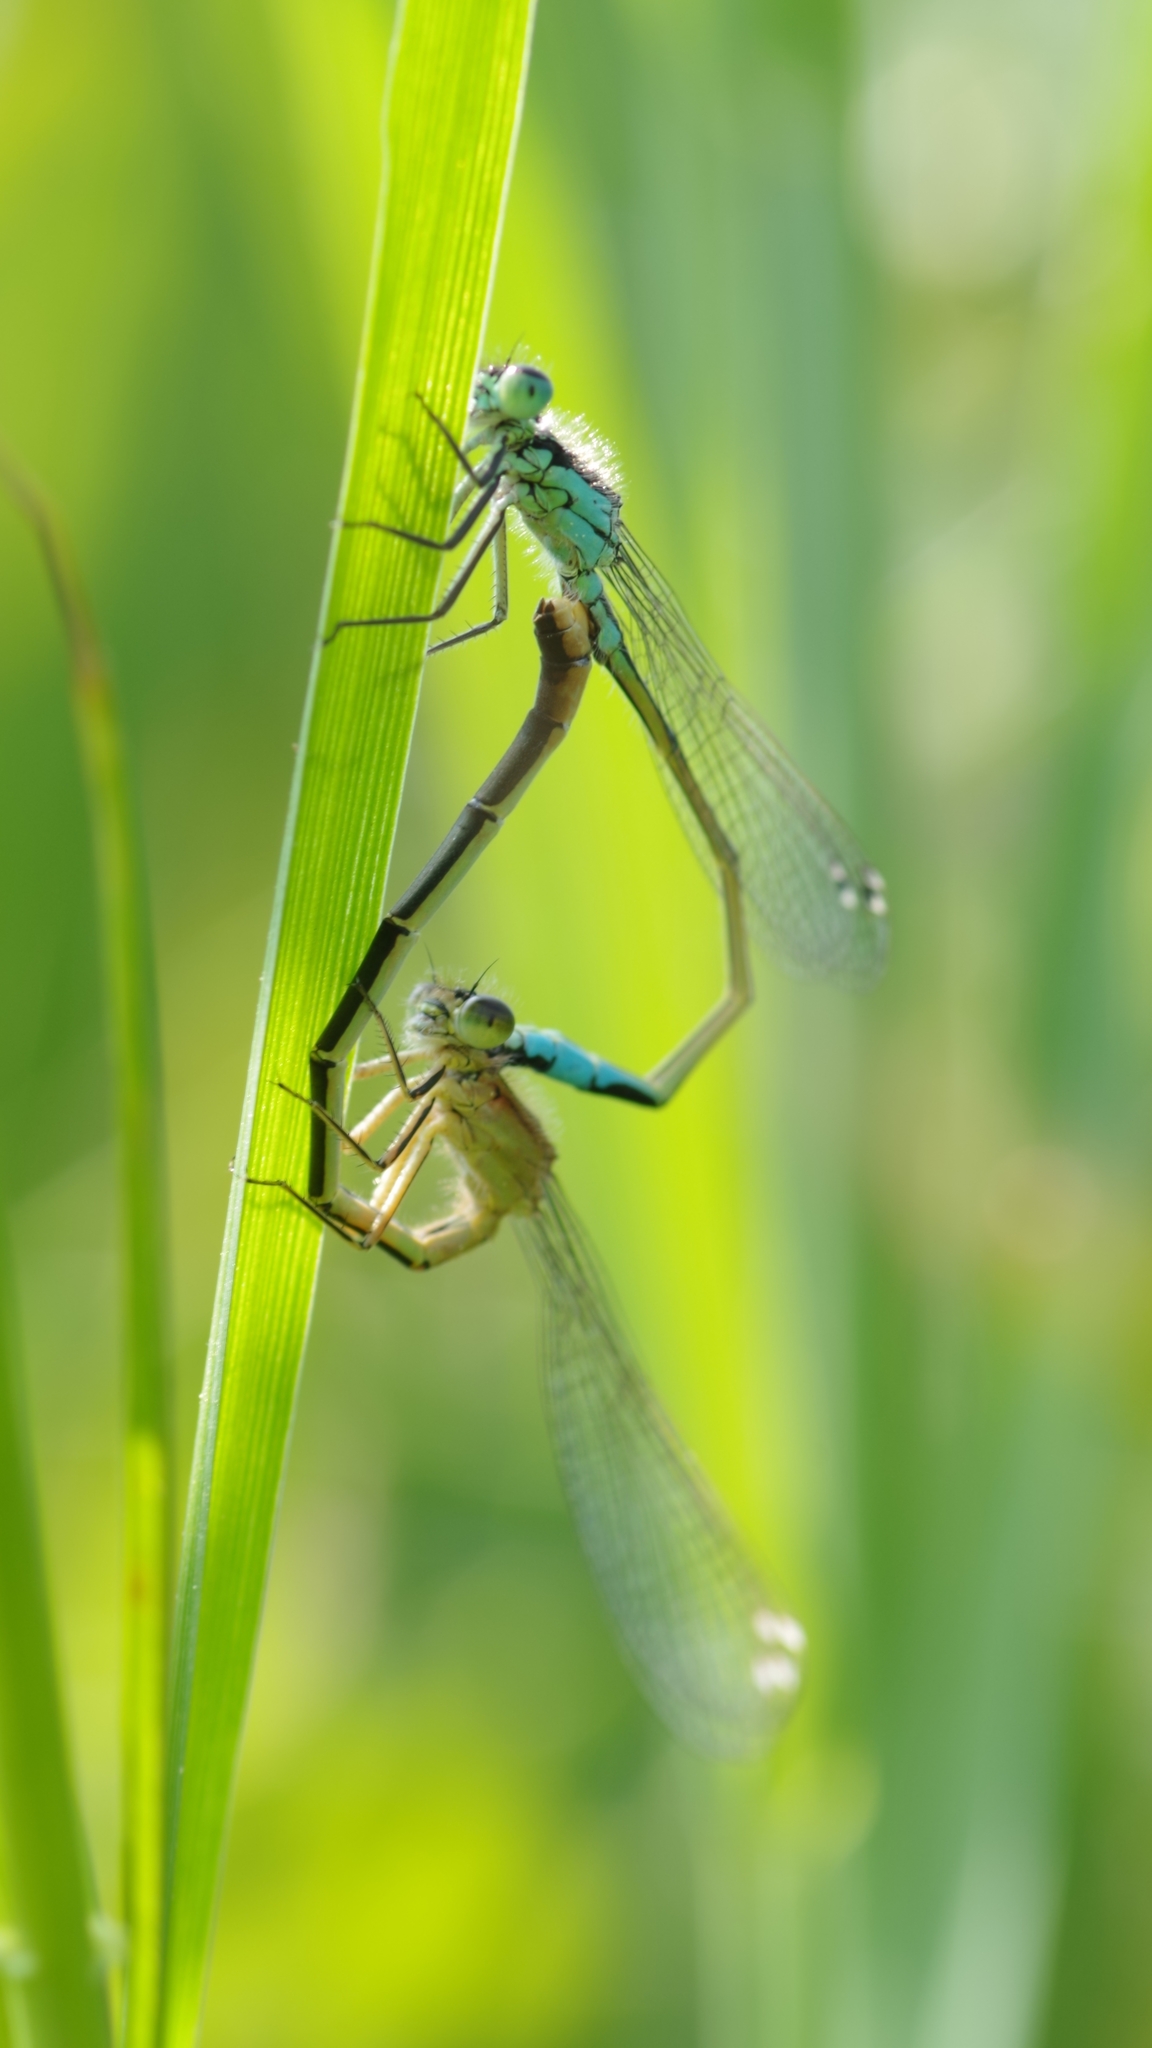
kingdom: Animalia
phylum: Arthropoda
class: Insecta
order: Odonata
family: Coenagrionidae
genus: Ischnura
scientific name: Ischnura elegans
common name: Blue-tailed damselfly
